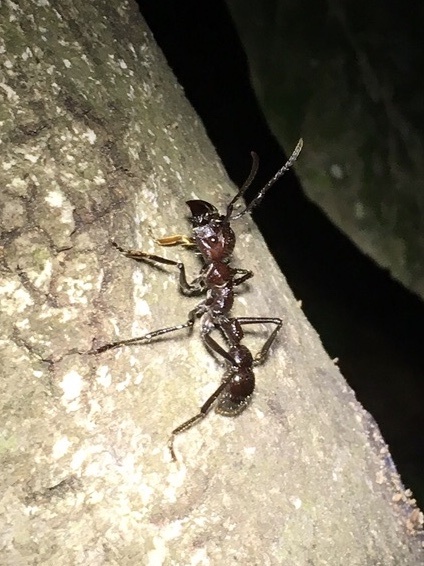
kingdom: Animalia
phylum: Arthropoda
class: Insecta
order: Hymenoptera
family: Formicidae
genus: Paraponera
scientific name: Paraponera clavata
